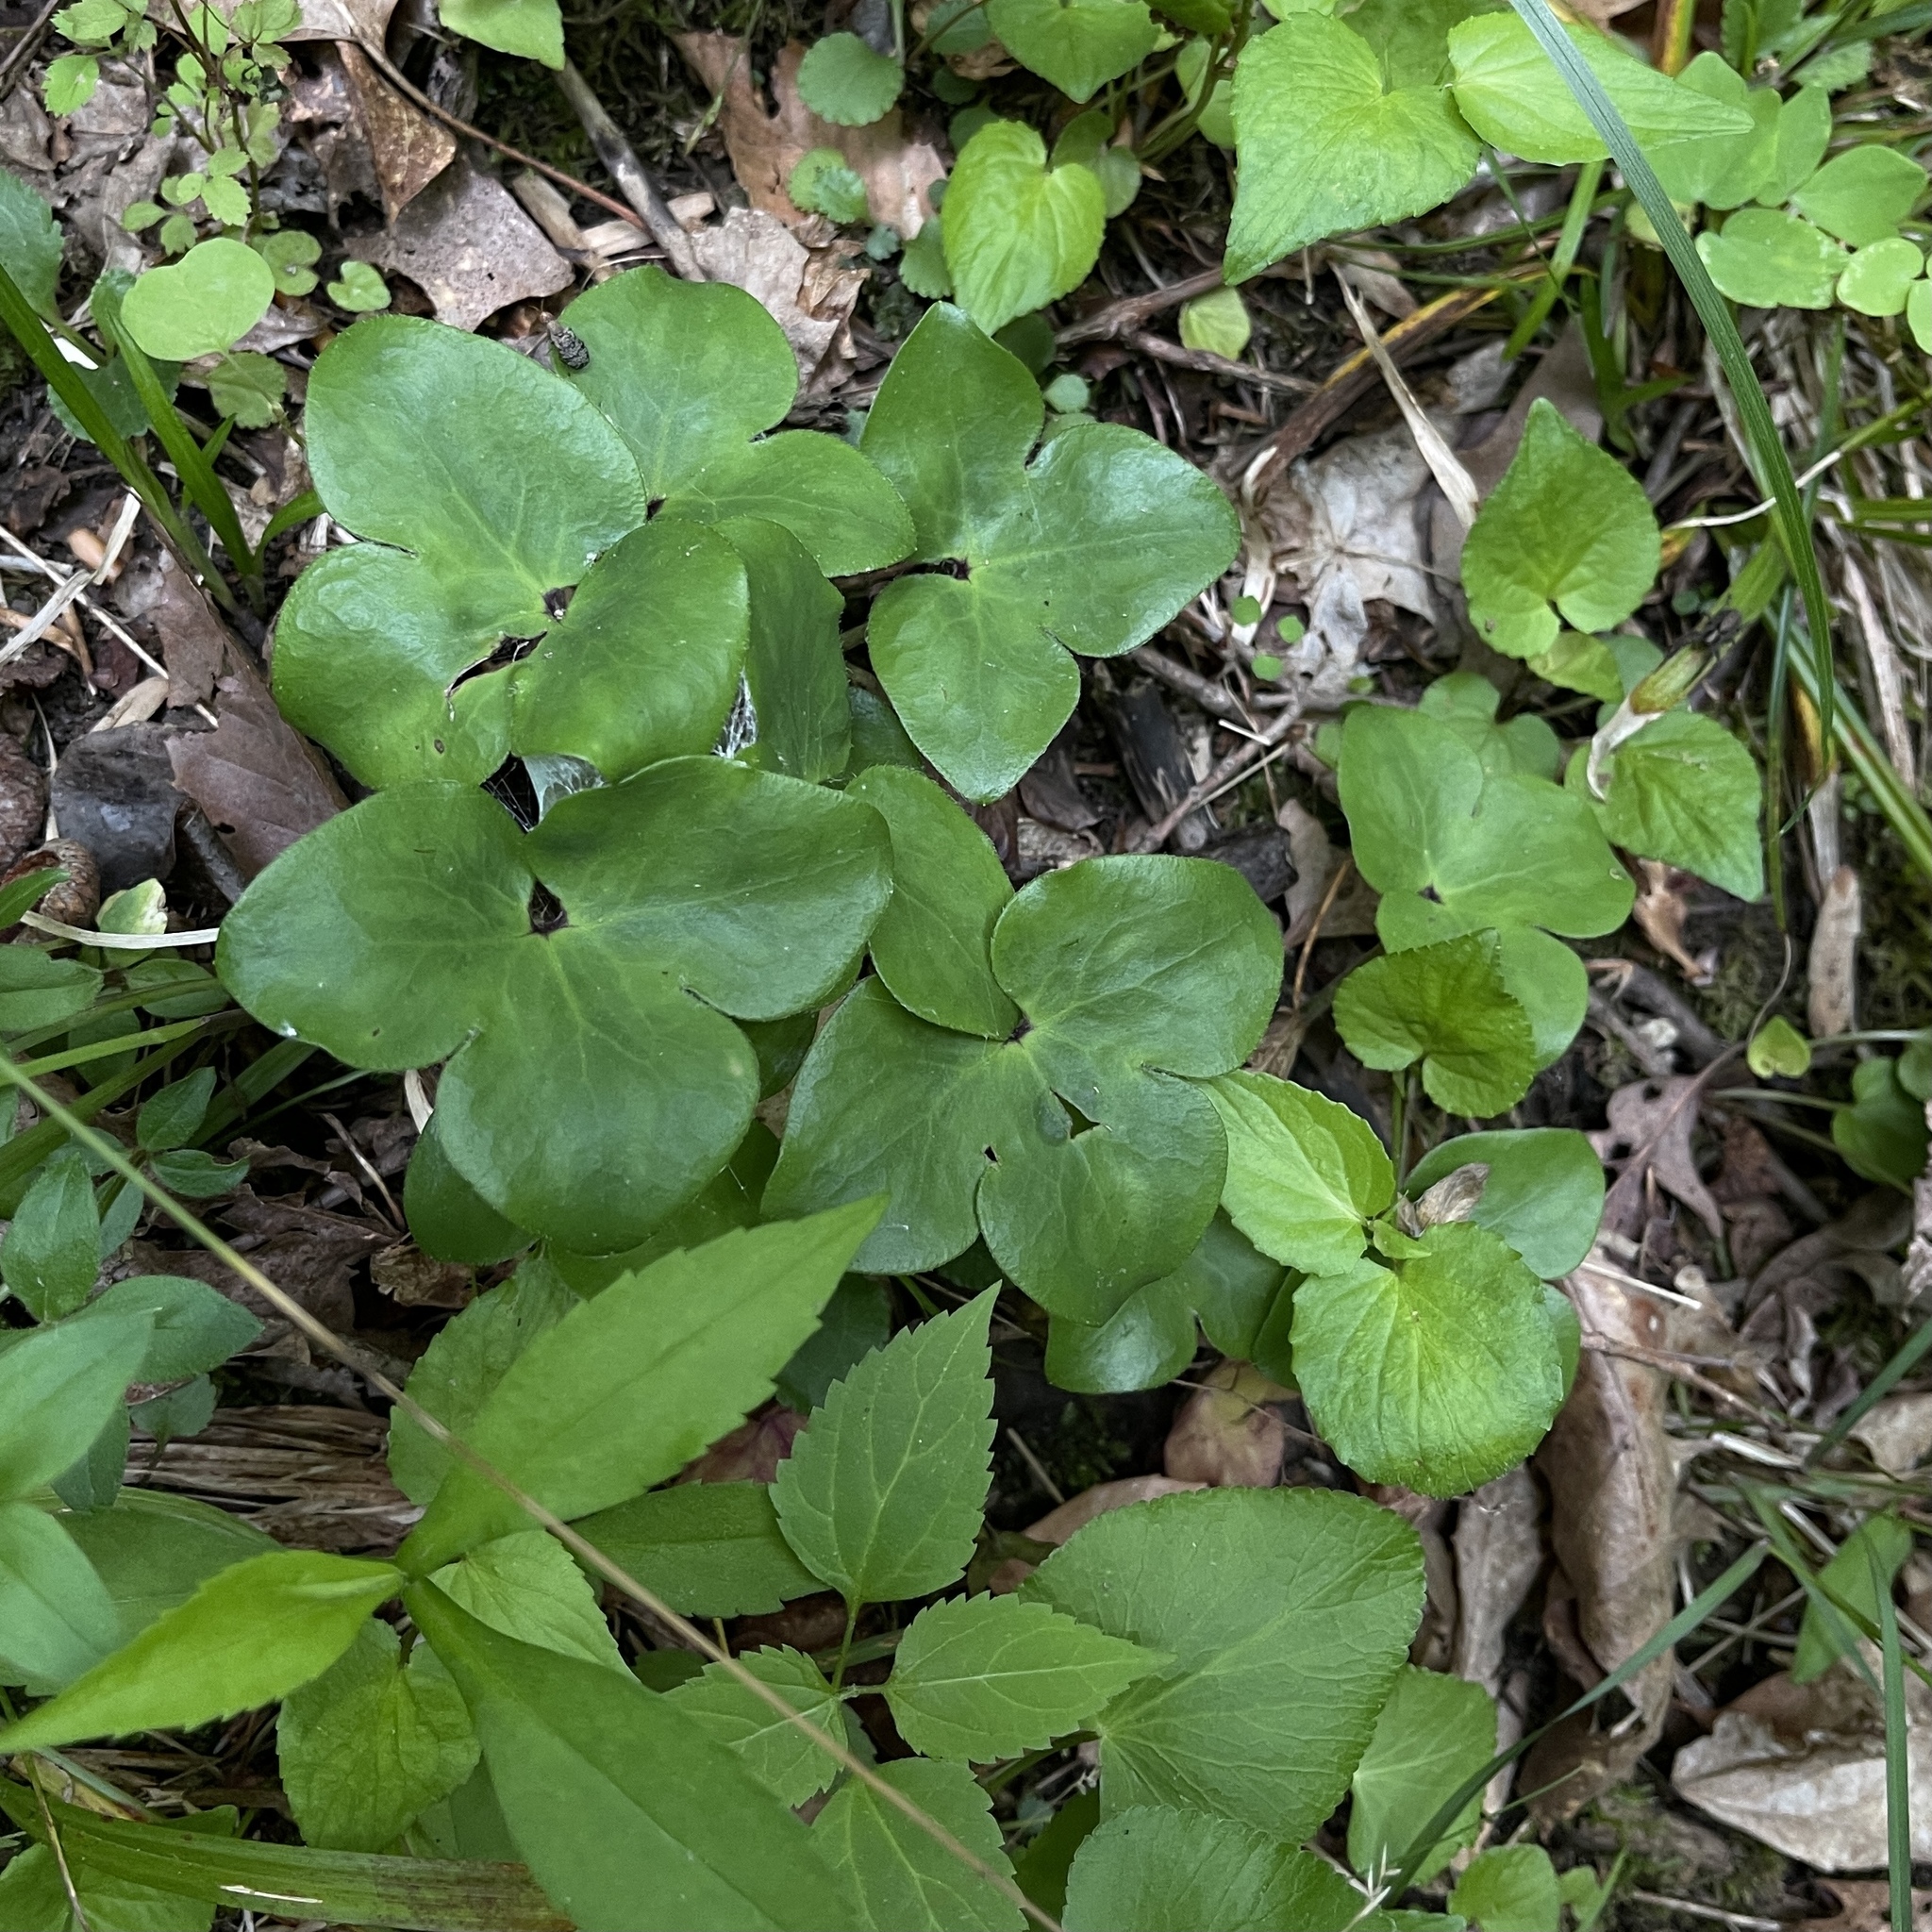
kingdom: Plantae
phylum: Tracheophyta
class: Magnoliopsida
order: Ranunculales
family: Ranunculaceae
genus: Hepatica
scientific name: Hepatica americana
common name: American hepatica
